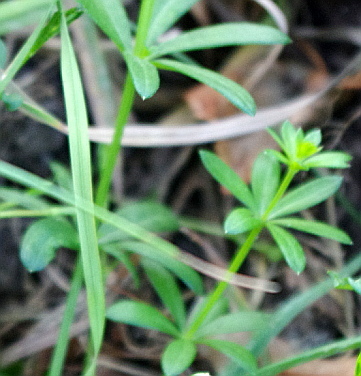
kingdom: Plantae
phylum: Tracheophyta
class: Magnoliopsida
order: Gentianales
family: Rubiaceae
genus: Galium
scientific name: Galium mollugo
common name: Hedge bedstraw
